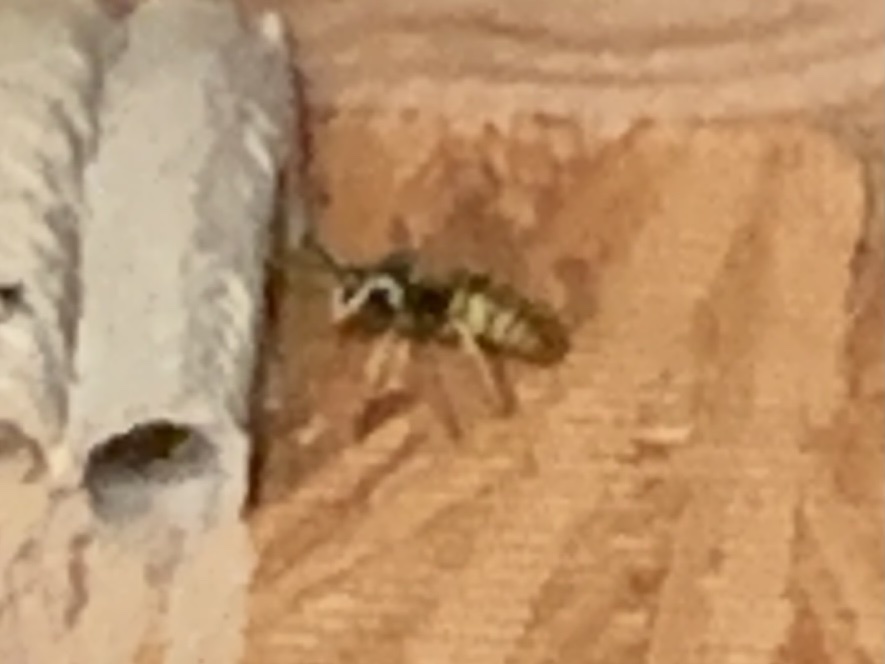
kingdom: Animalia
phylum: Arthropoda
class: Insecta
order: Hymenoptera
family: Vespidae
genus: Vespula
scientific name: Vespula
